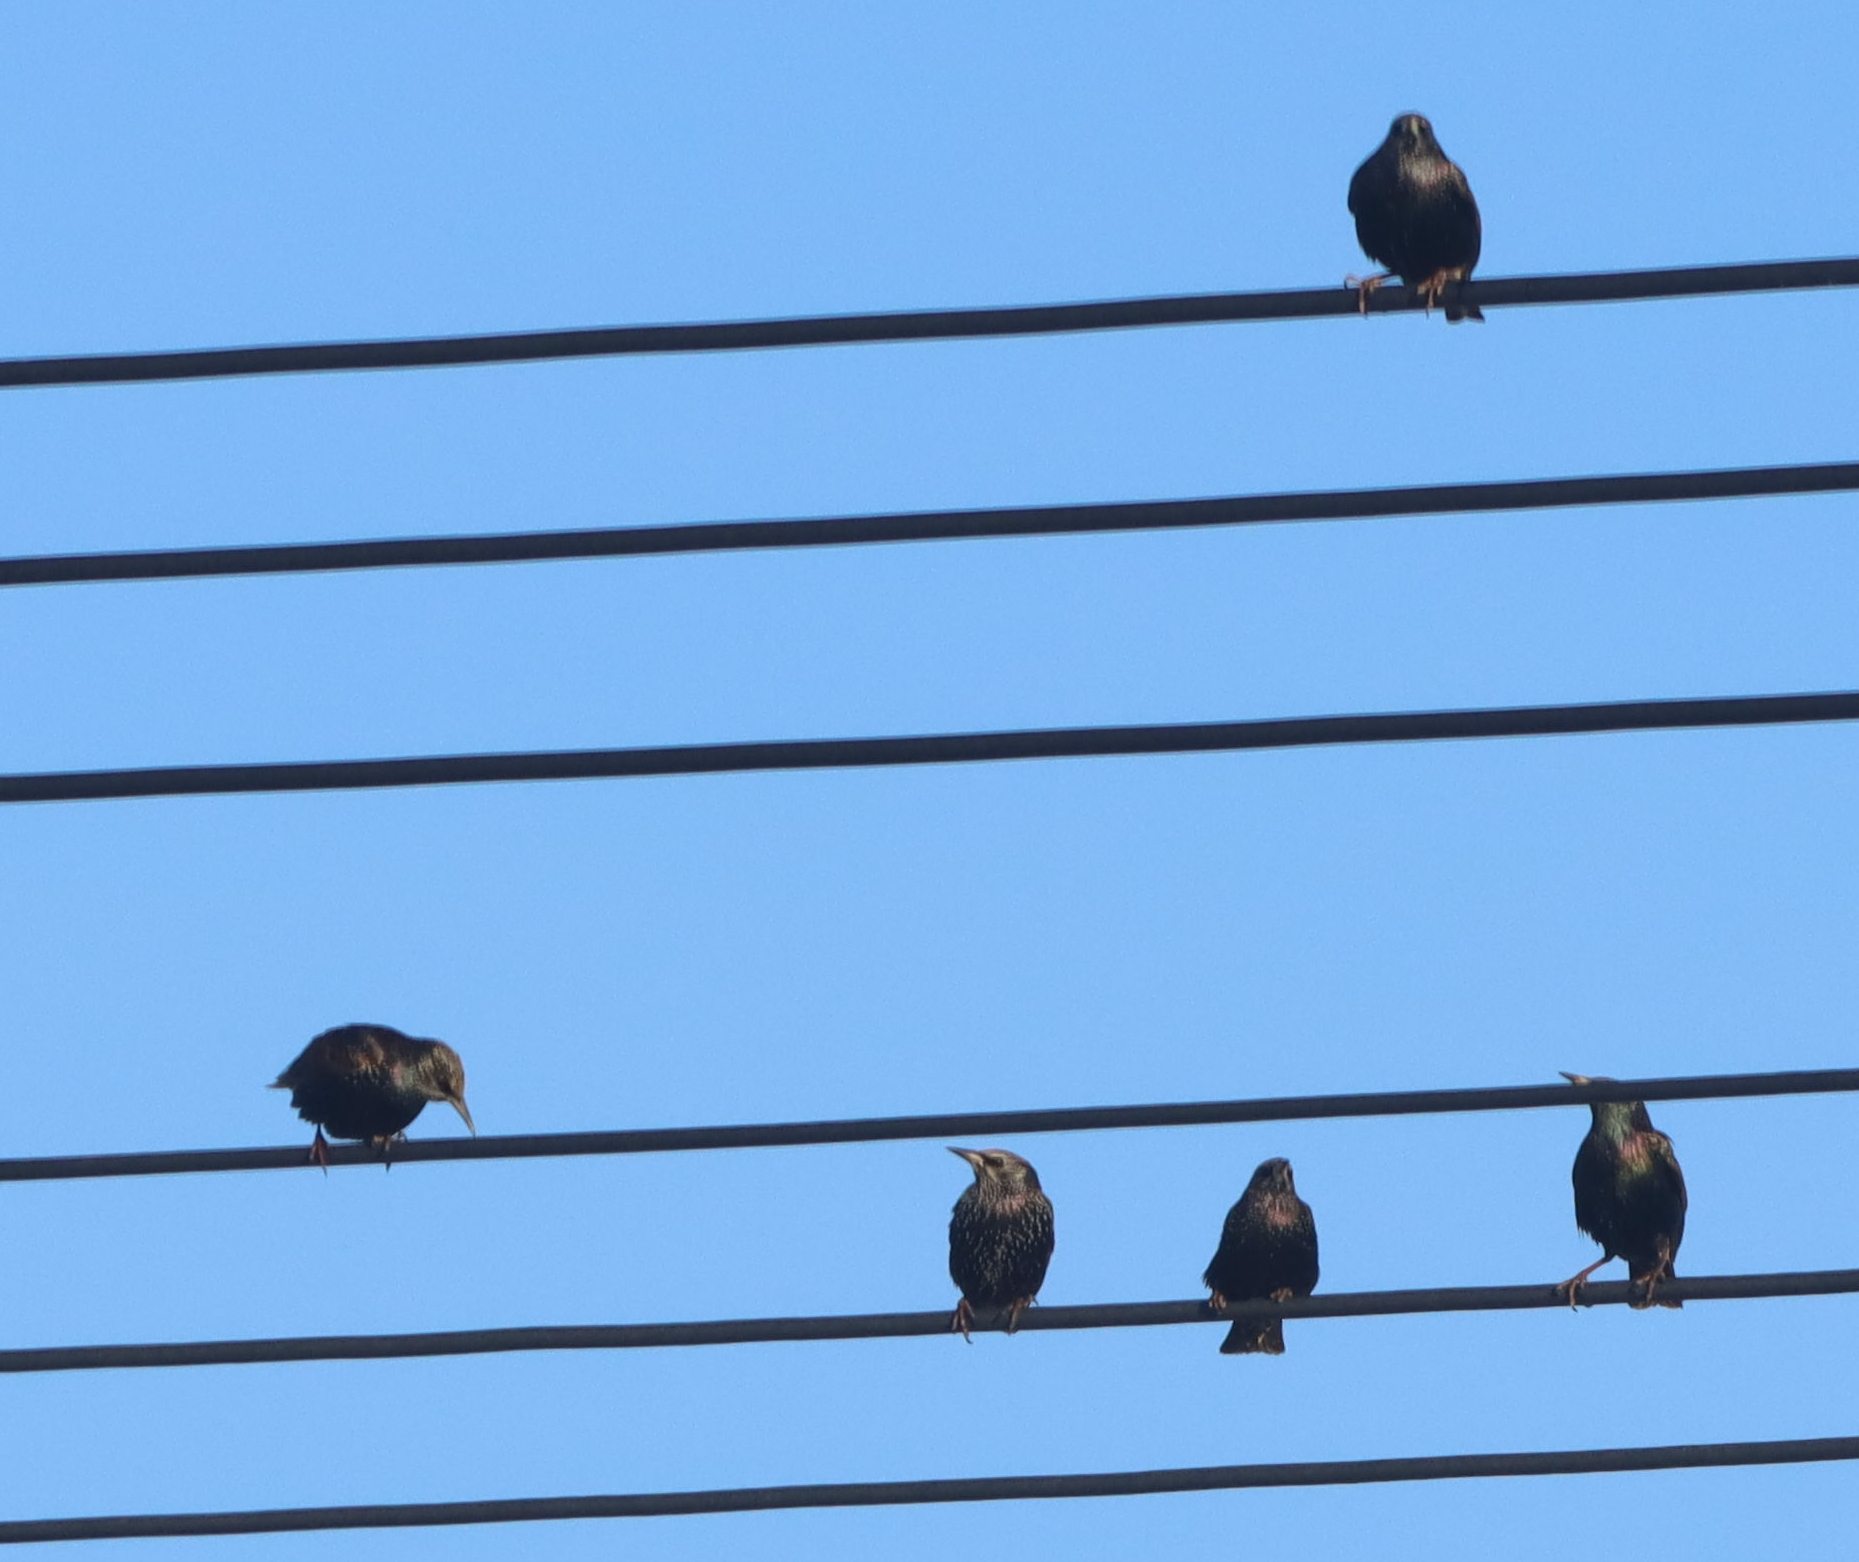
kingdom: Animalia
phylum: Chordata
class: Aves
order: Passeriformes
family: Sturnidae
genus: Sturnus
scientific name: Sturnus vulgaris
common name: Common starling
